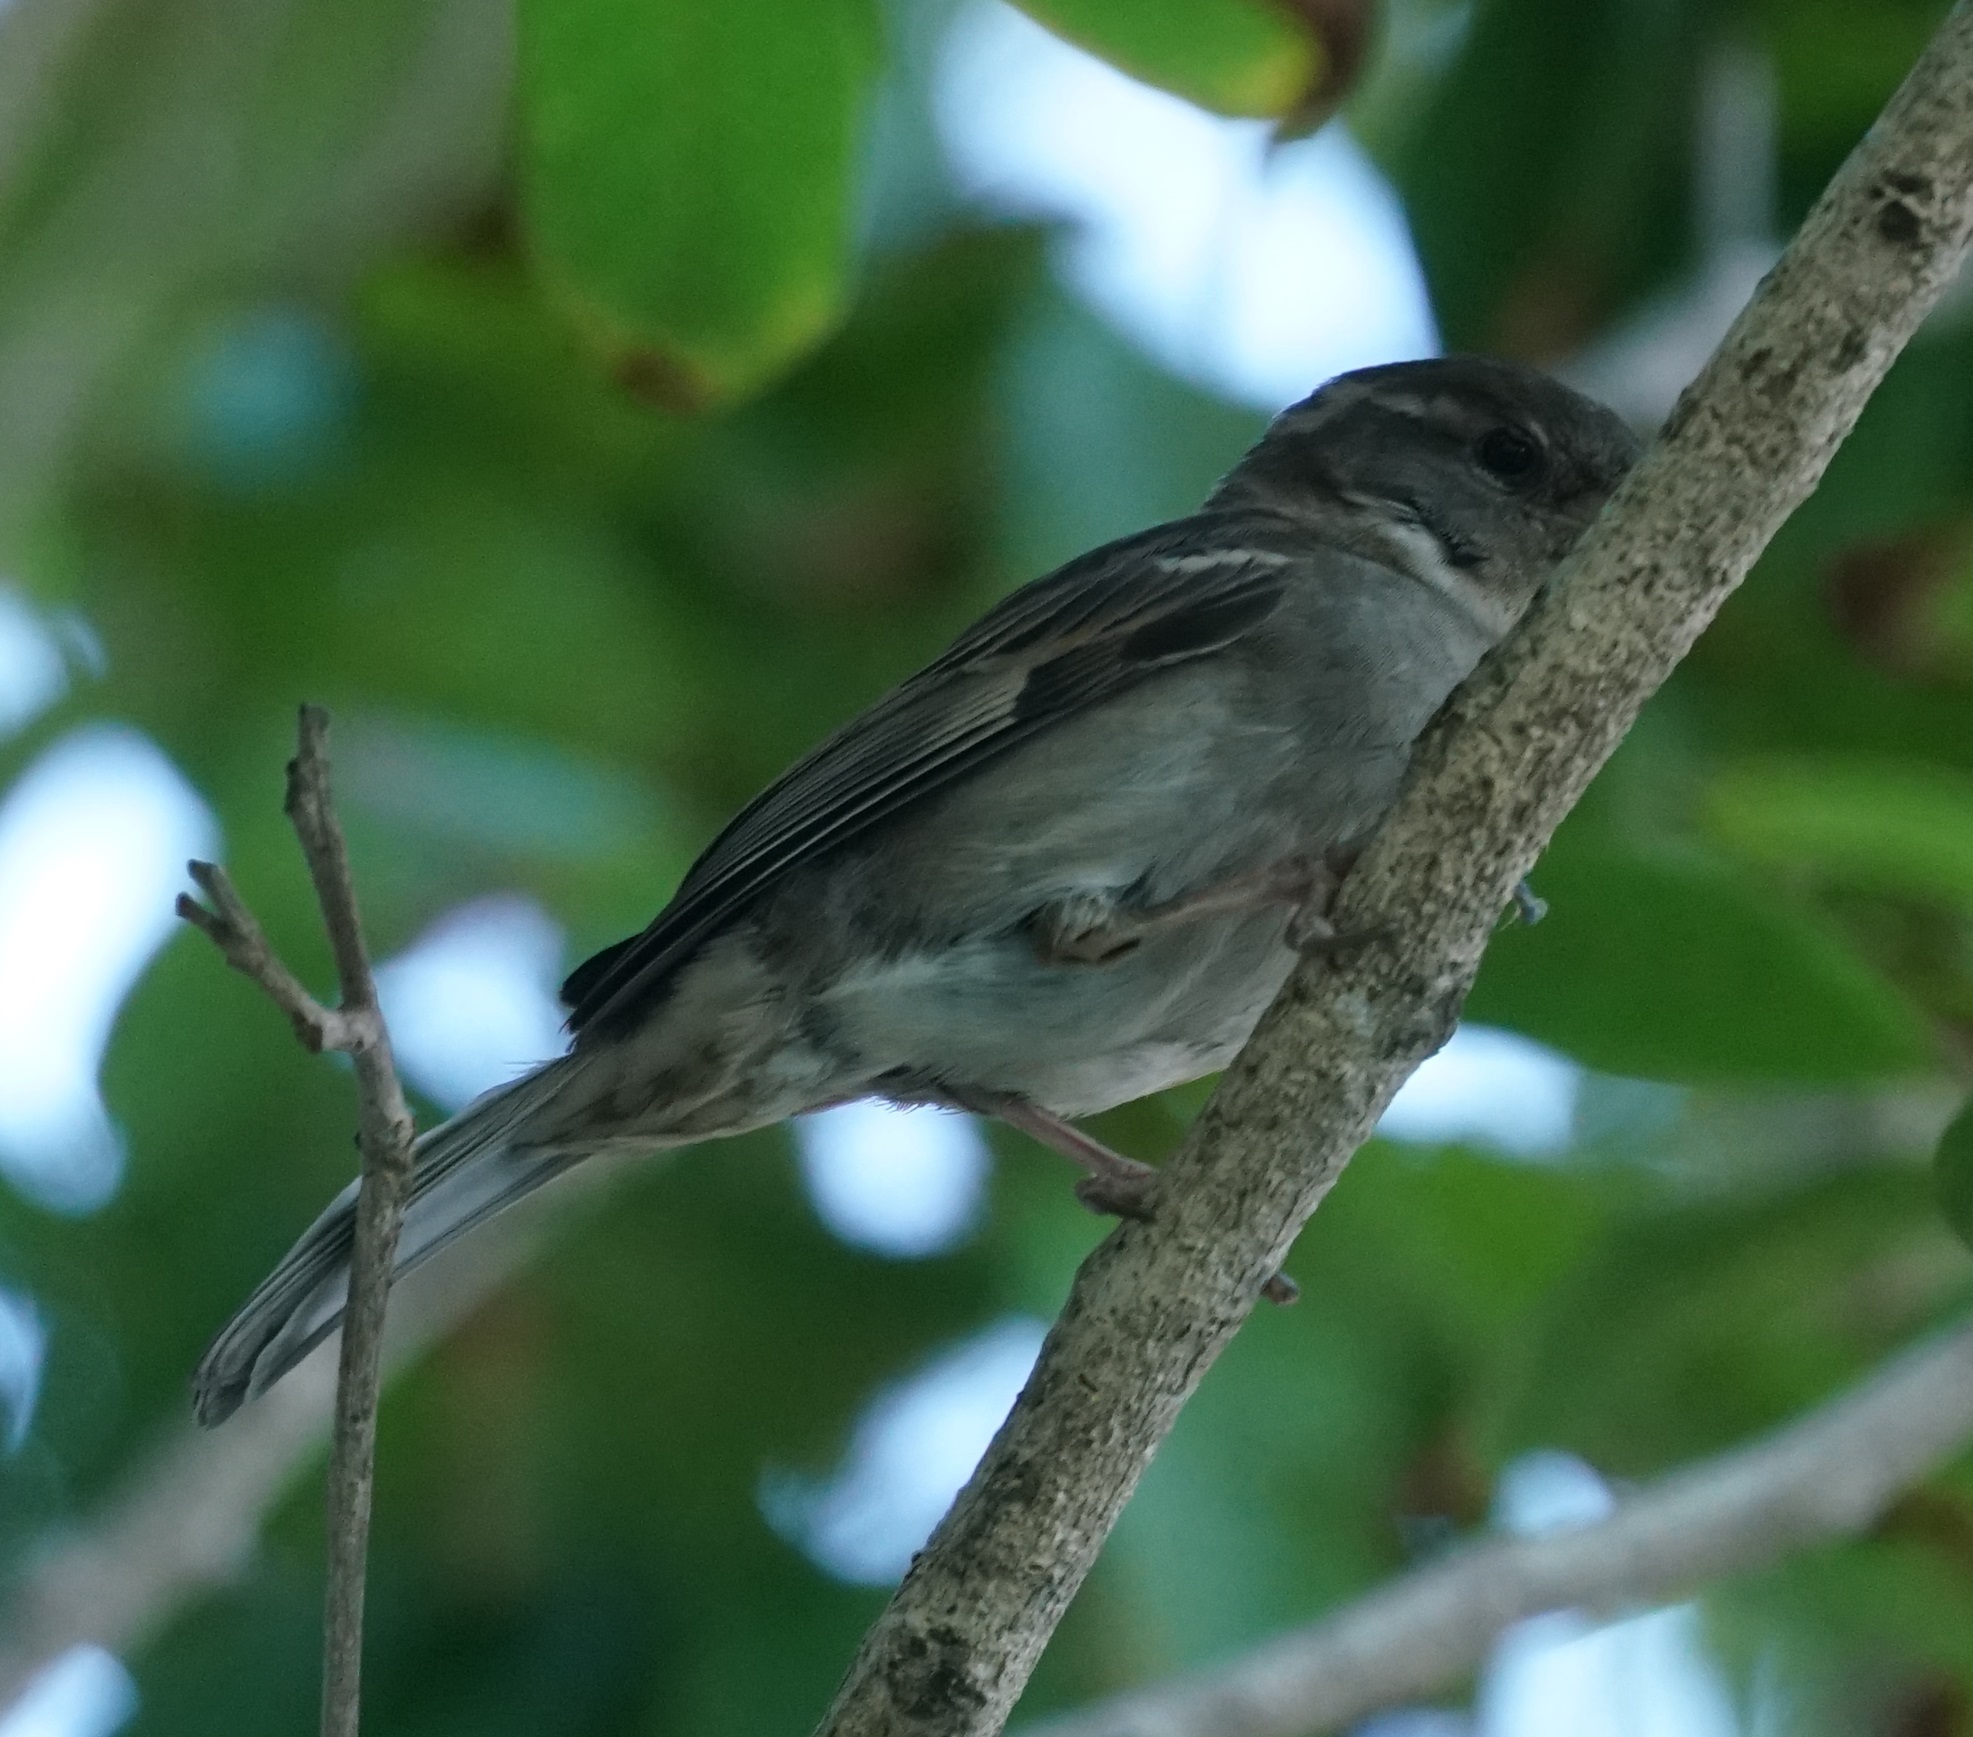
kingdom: Animalia
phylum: Chordata
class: Aves
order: Passeriformes
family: Passeridae
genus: Passer
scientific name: Passer domesticus
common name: House sparrow
